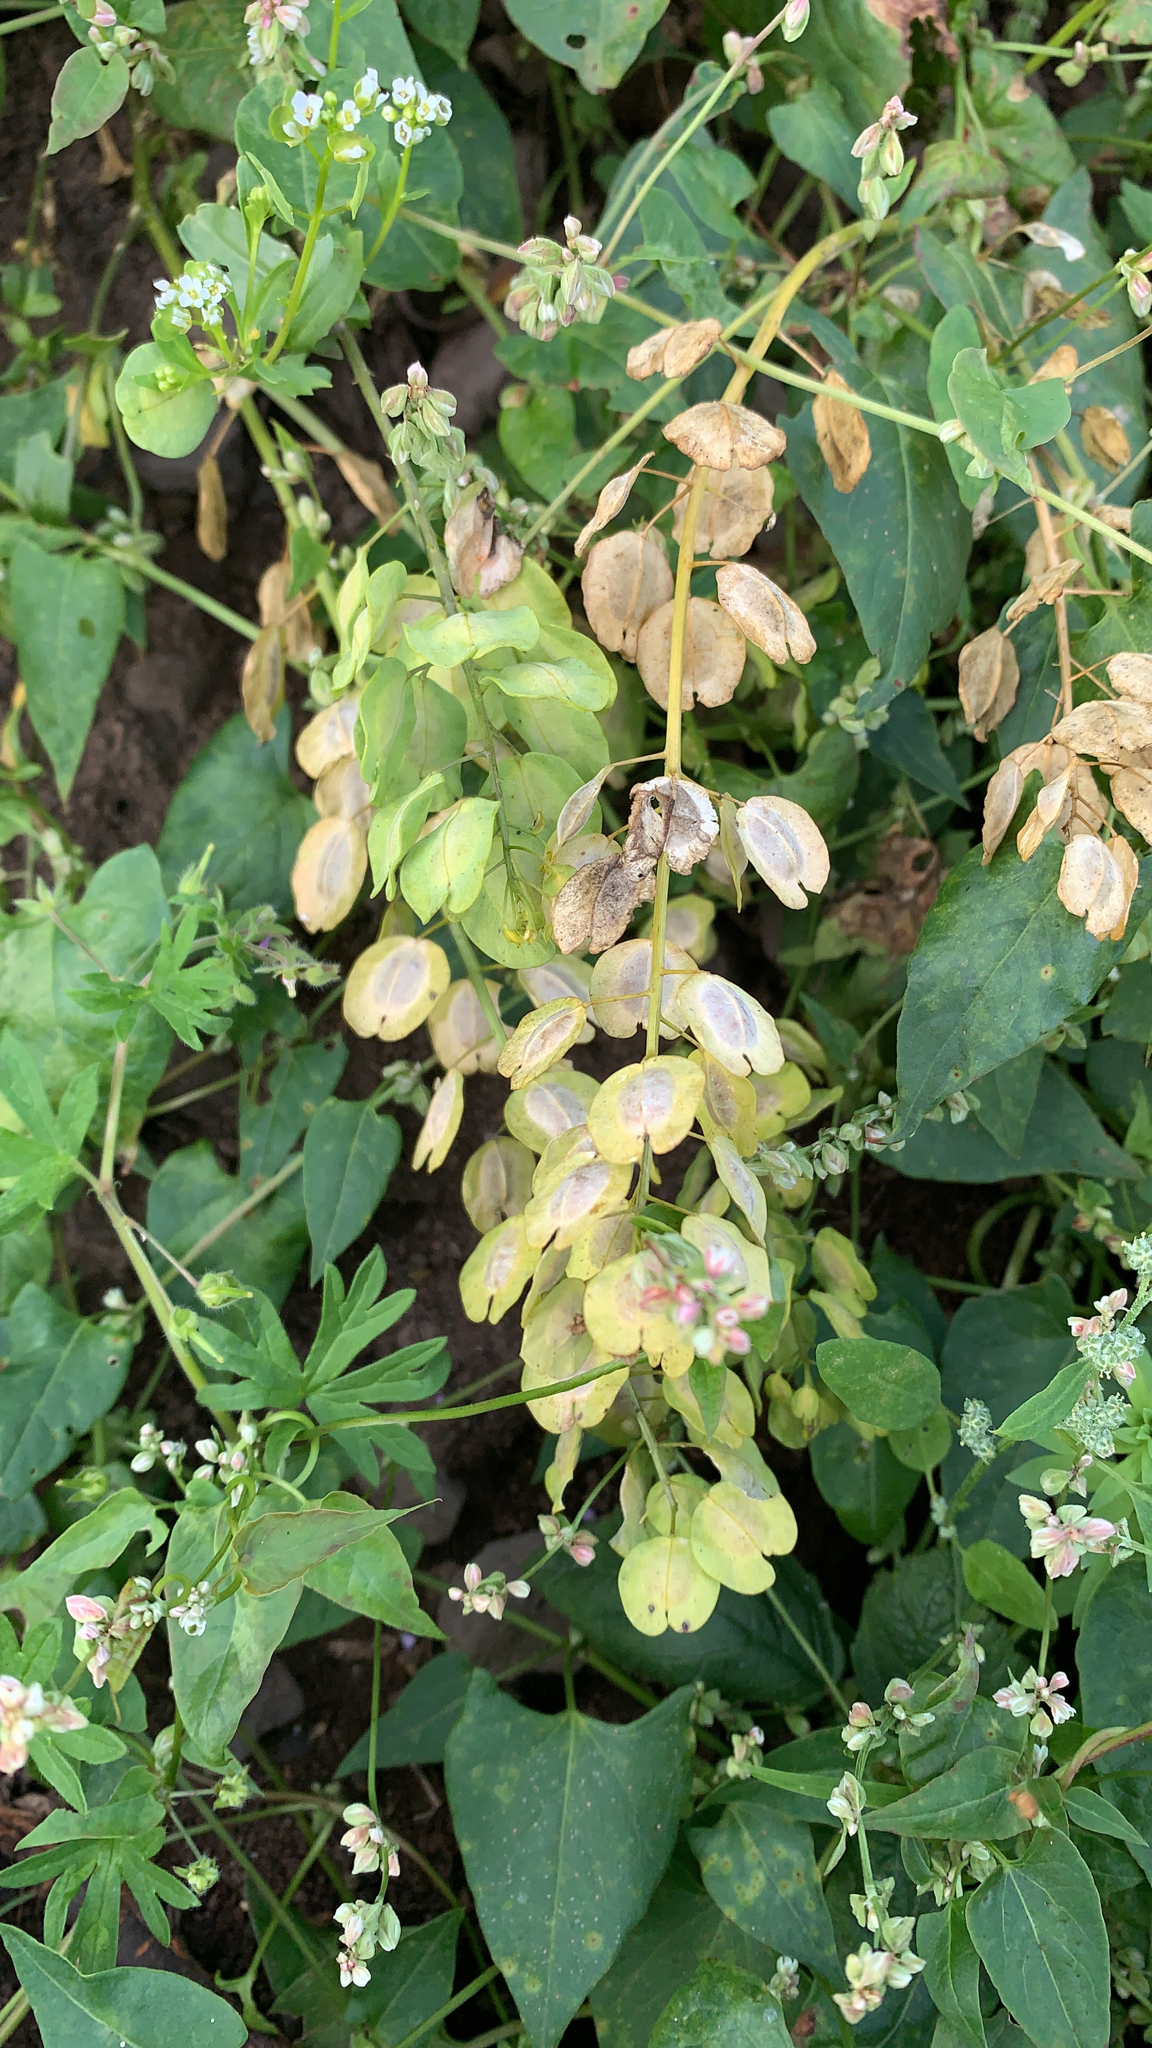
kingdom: Plantae
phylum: Tracheophyta
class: Magnoliopsida
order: Brassicales
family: Brassicaceae
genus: Thlaspi
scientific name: Thlaspi arvense
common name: Field pennycress
